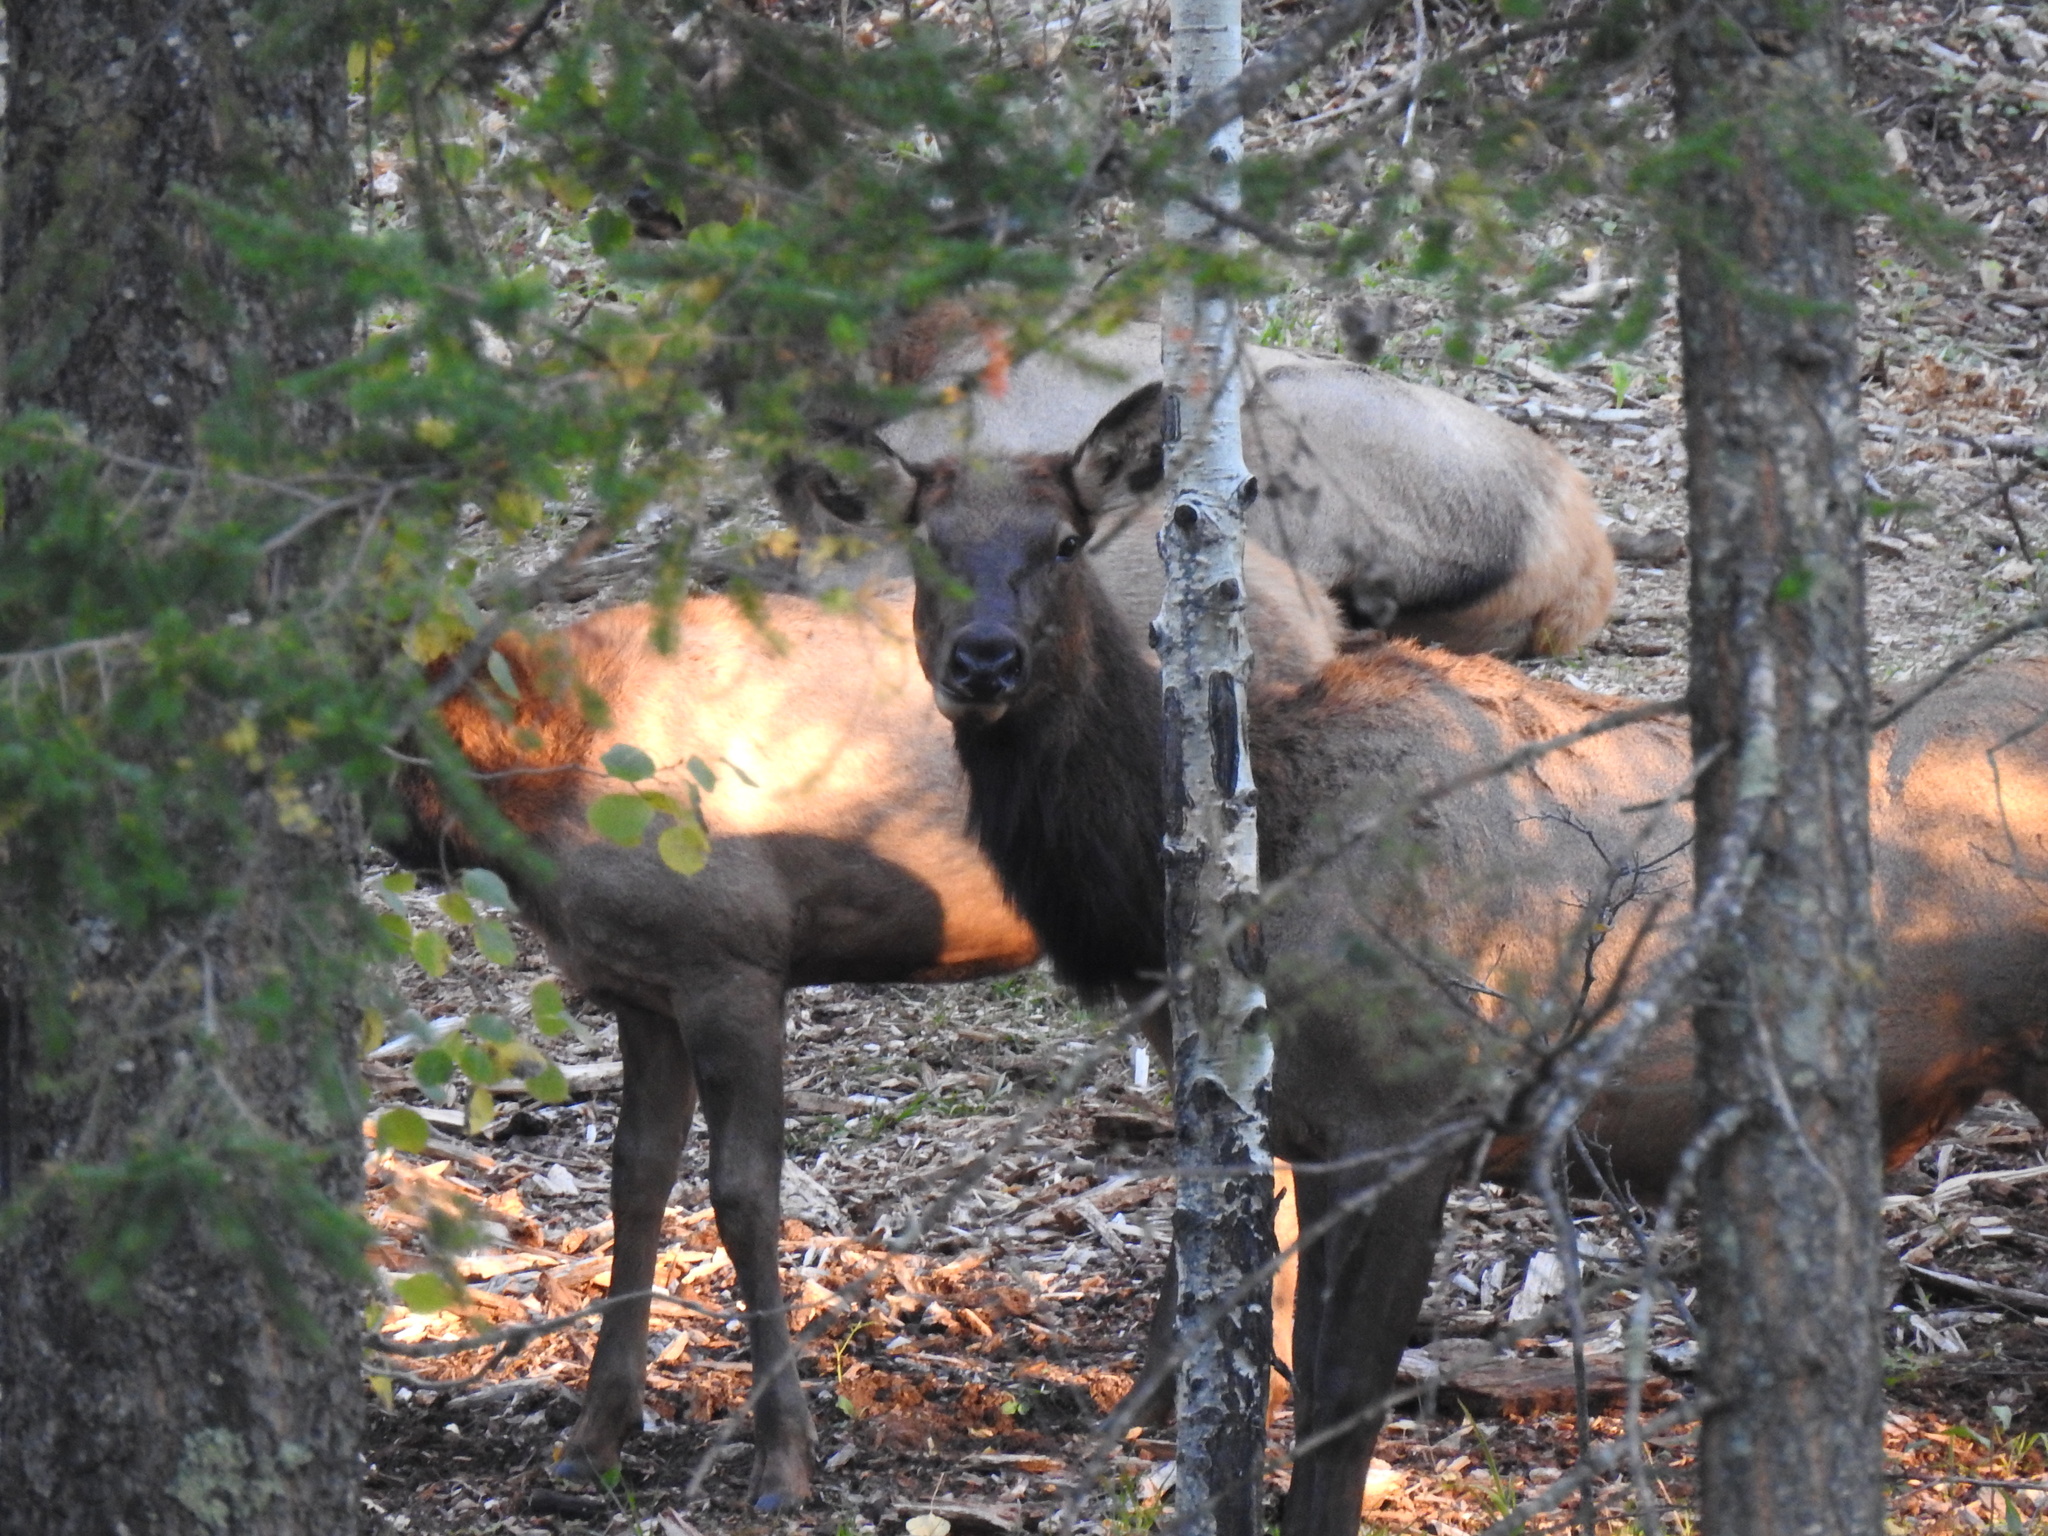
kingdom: Animalia
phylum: Chordata
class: Mammalia
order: Artiodactyla
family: Cervidae
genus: Cervus
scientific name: Cervus elaphus
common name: Red deer
